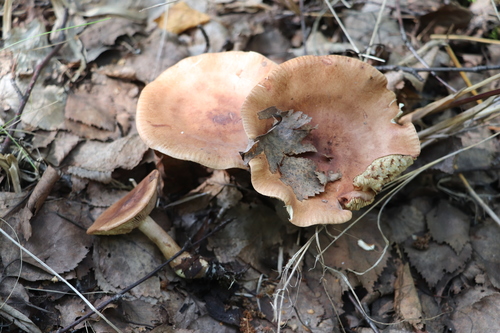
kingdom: Fungi
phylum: Basidiomycota
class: Agaricomycetes
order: Agaricales
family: Tricholomataceae
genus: Tricholoma
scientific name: Tricholoma fulvum
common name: Birch knight
